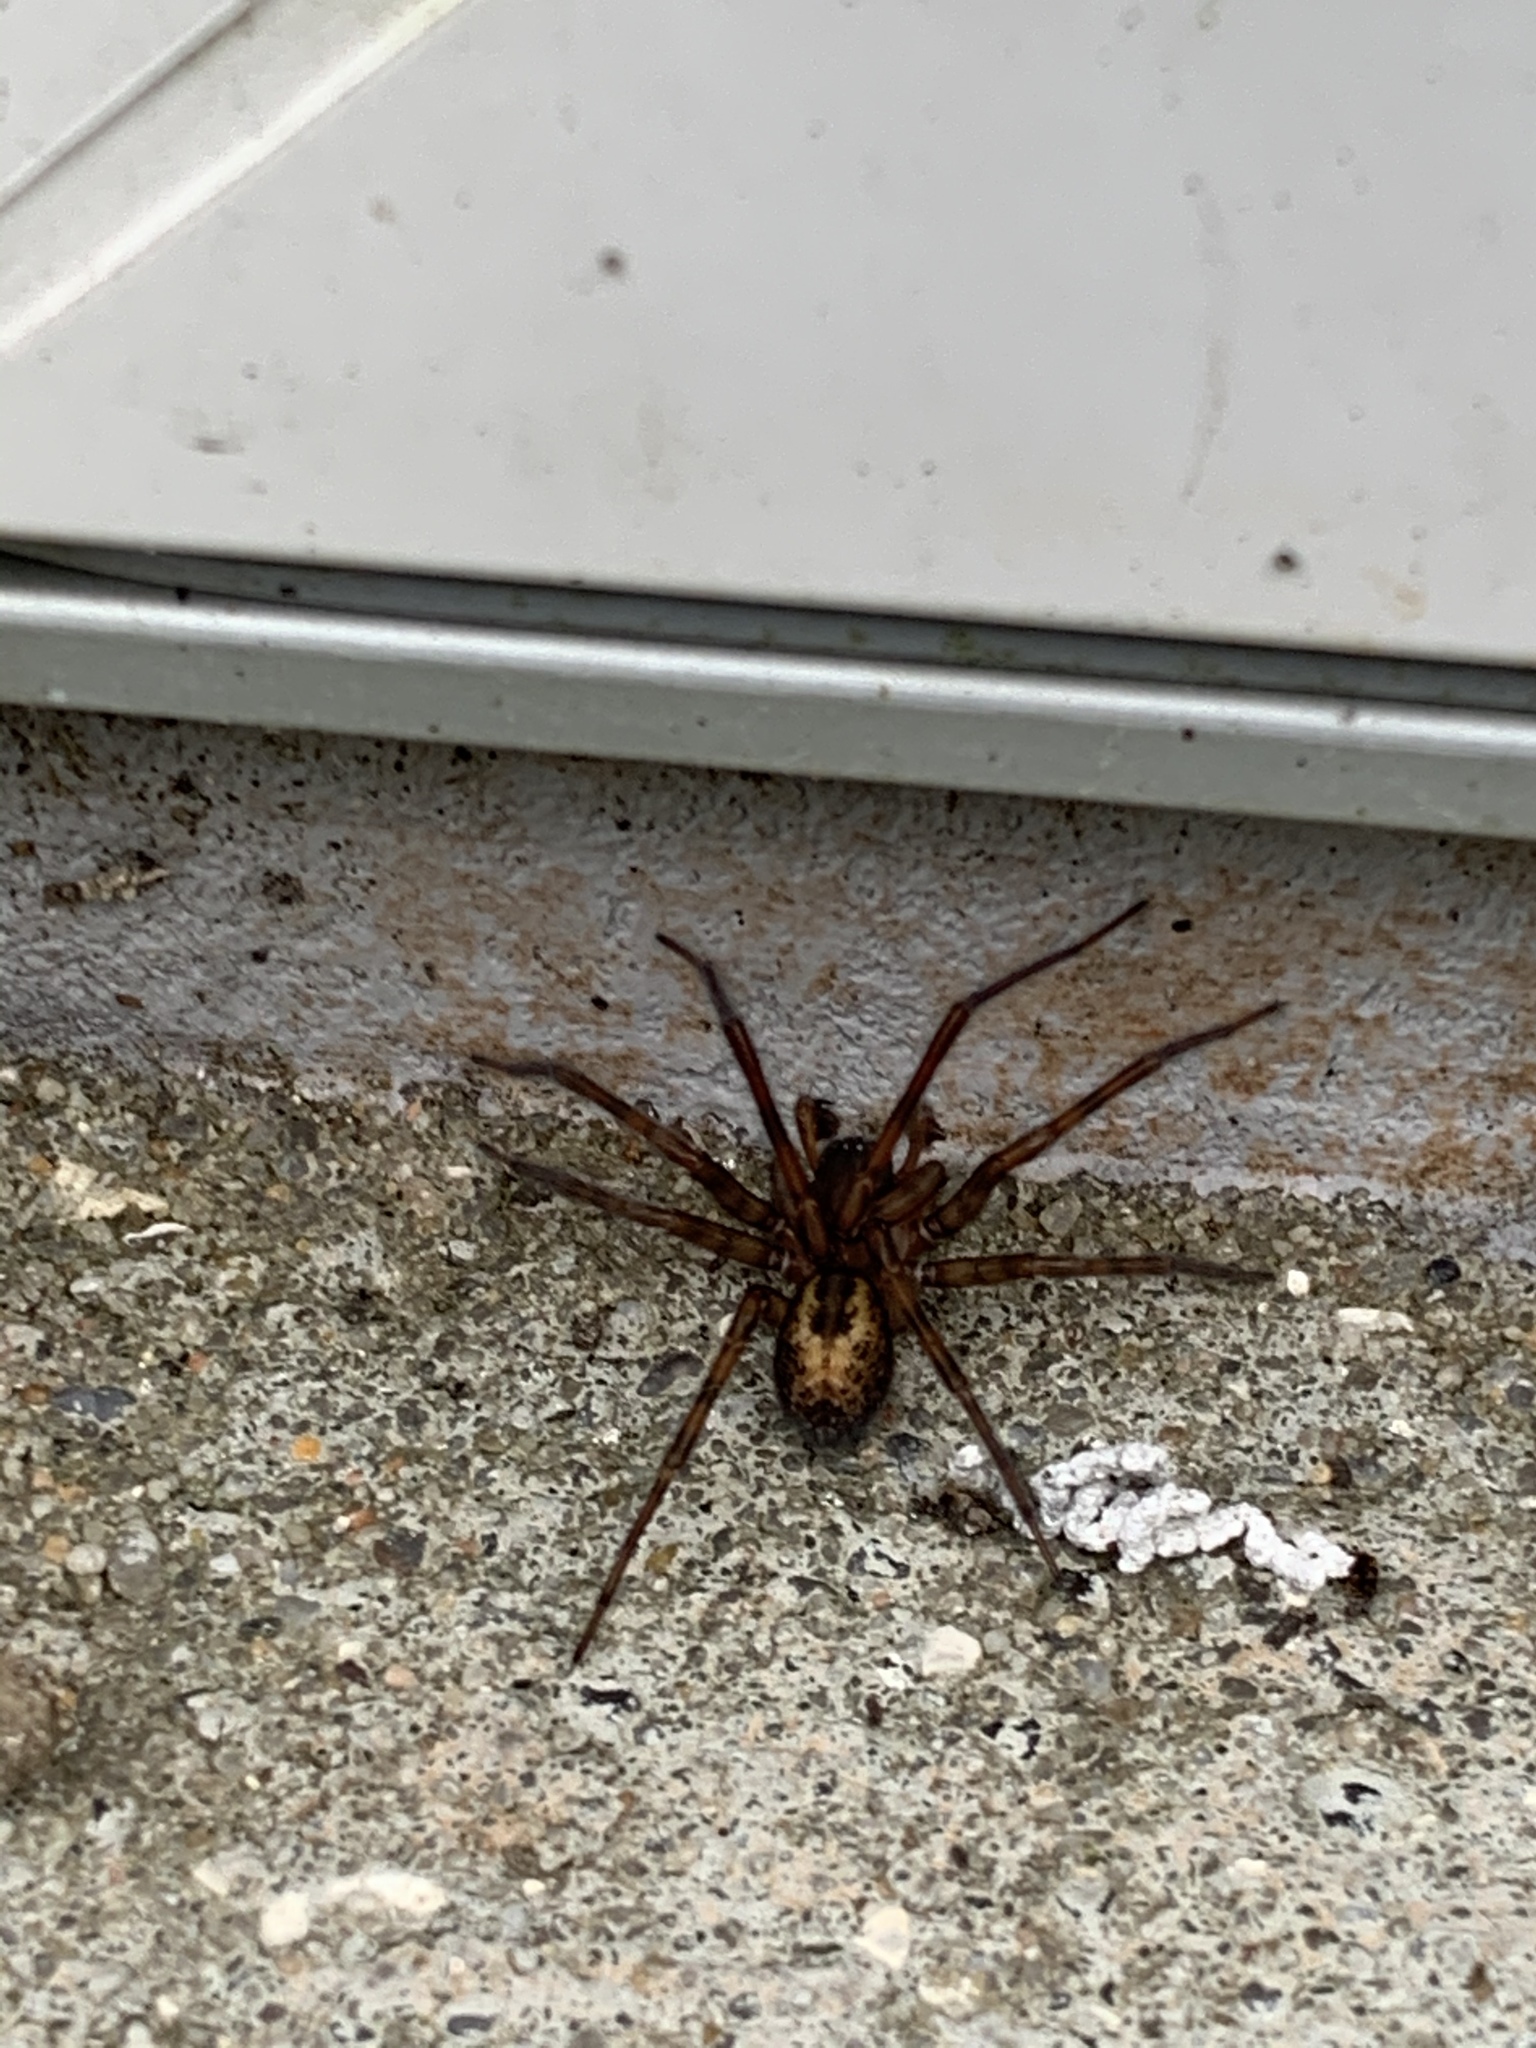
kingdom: Animalia
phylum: Arthropoda
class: Arachnida
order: Araneae
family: Amaurobiidae
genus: Amaurobius
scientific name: Amaurobius similis
